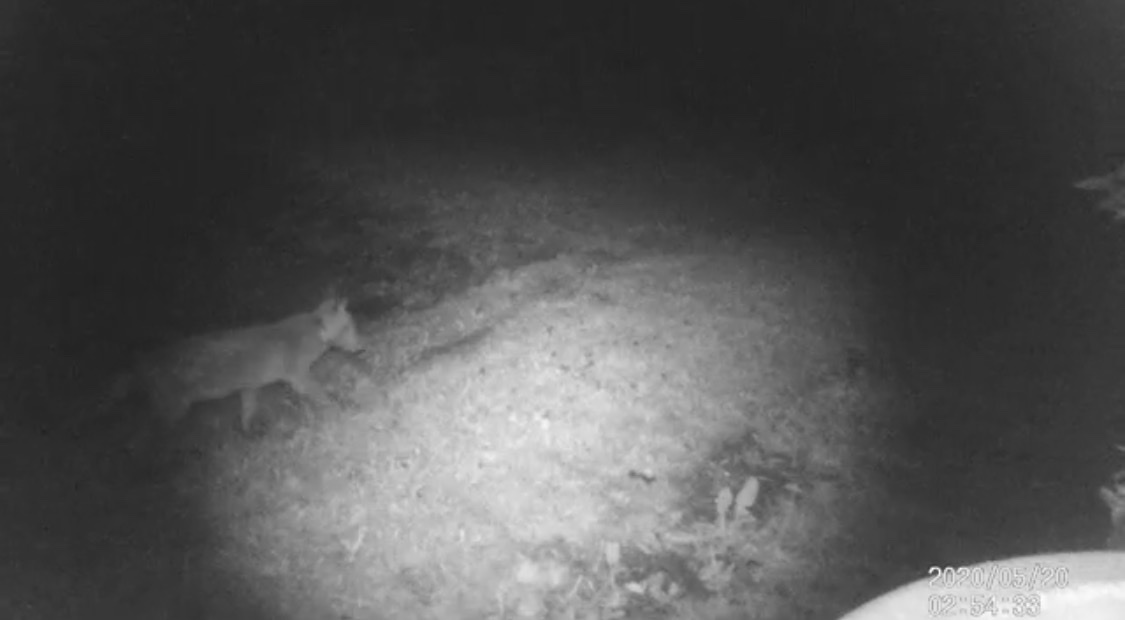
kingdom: Animalia
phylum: Chordata
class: Mammalia
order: Carnivora
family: Canidae
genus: Vulpes
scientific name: Vulpes vulpes
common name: Red fox
